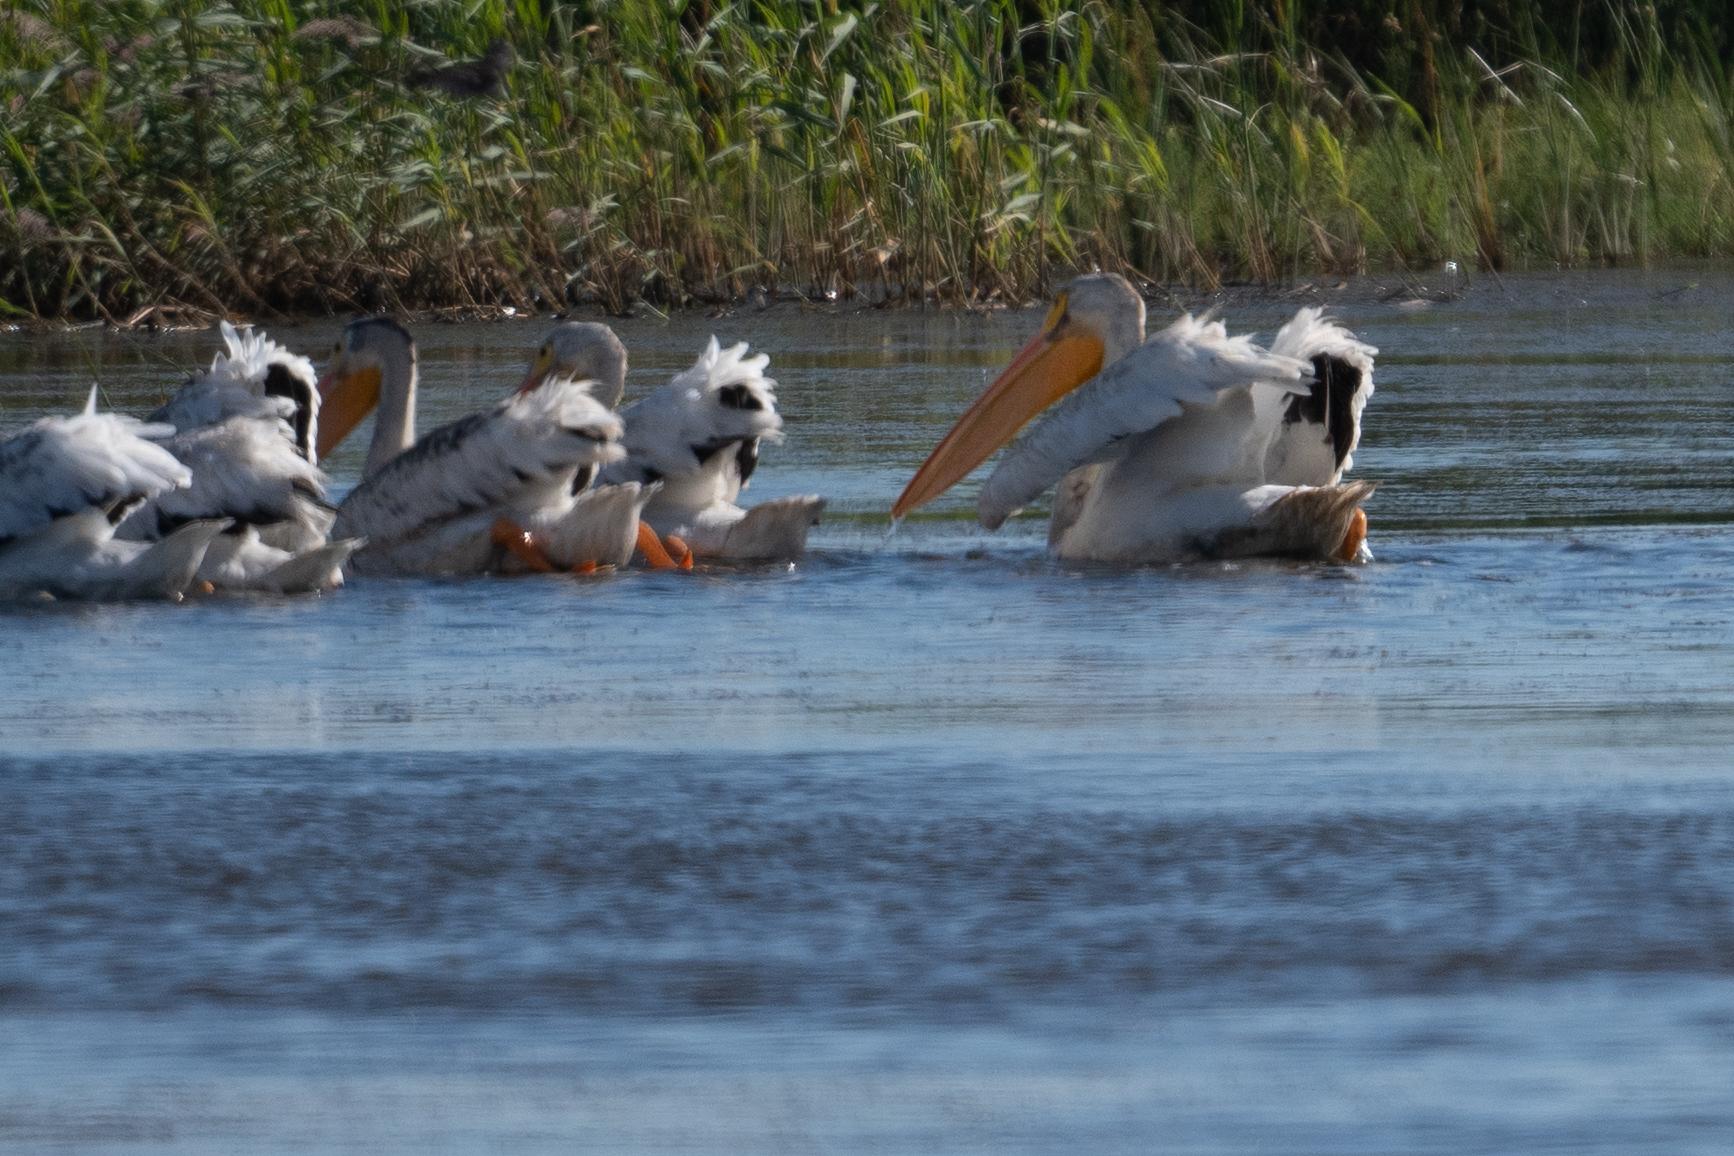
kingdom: Animalia
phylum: Chordata
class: Aves
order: Pelecaniformes
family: Pelecanidae
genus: Pelecanus
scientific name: Pelecanus erythrorhynchos
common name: American white pelican
